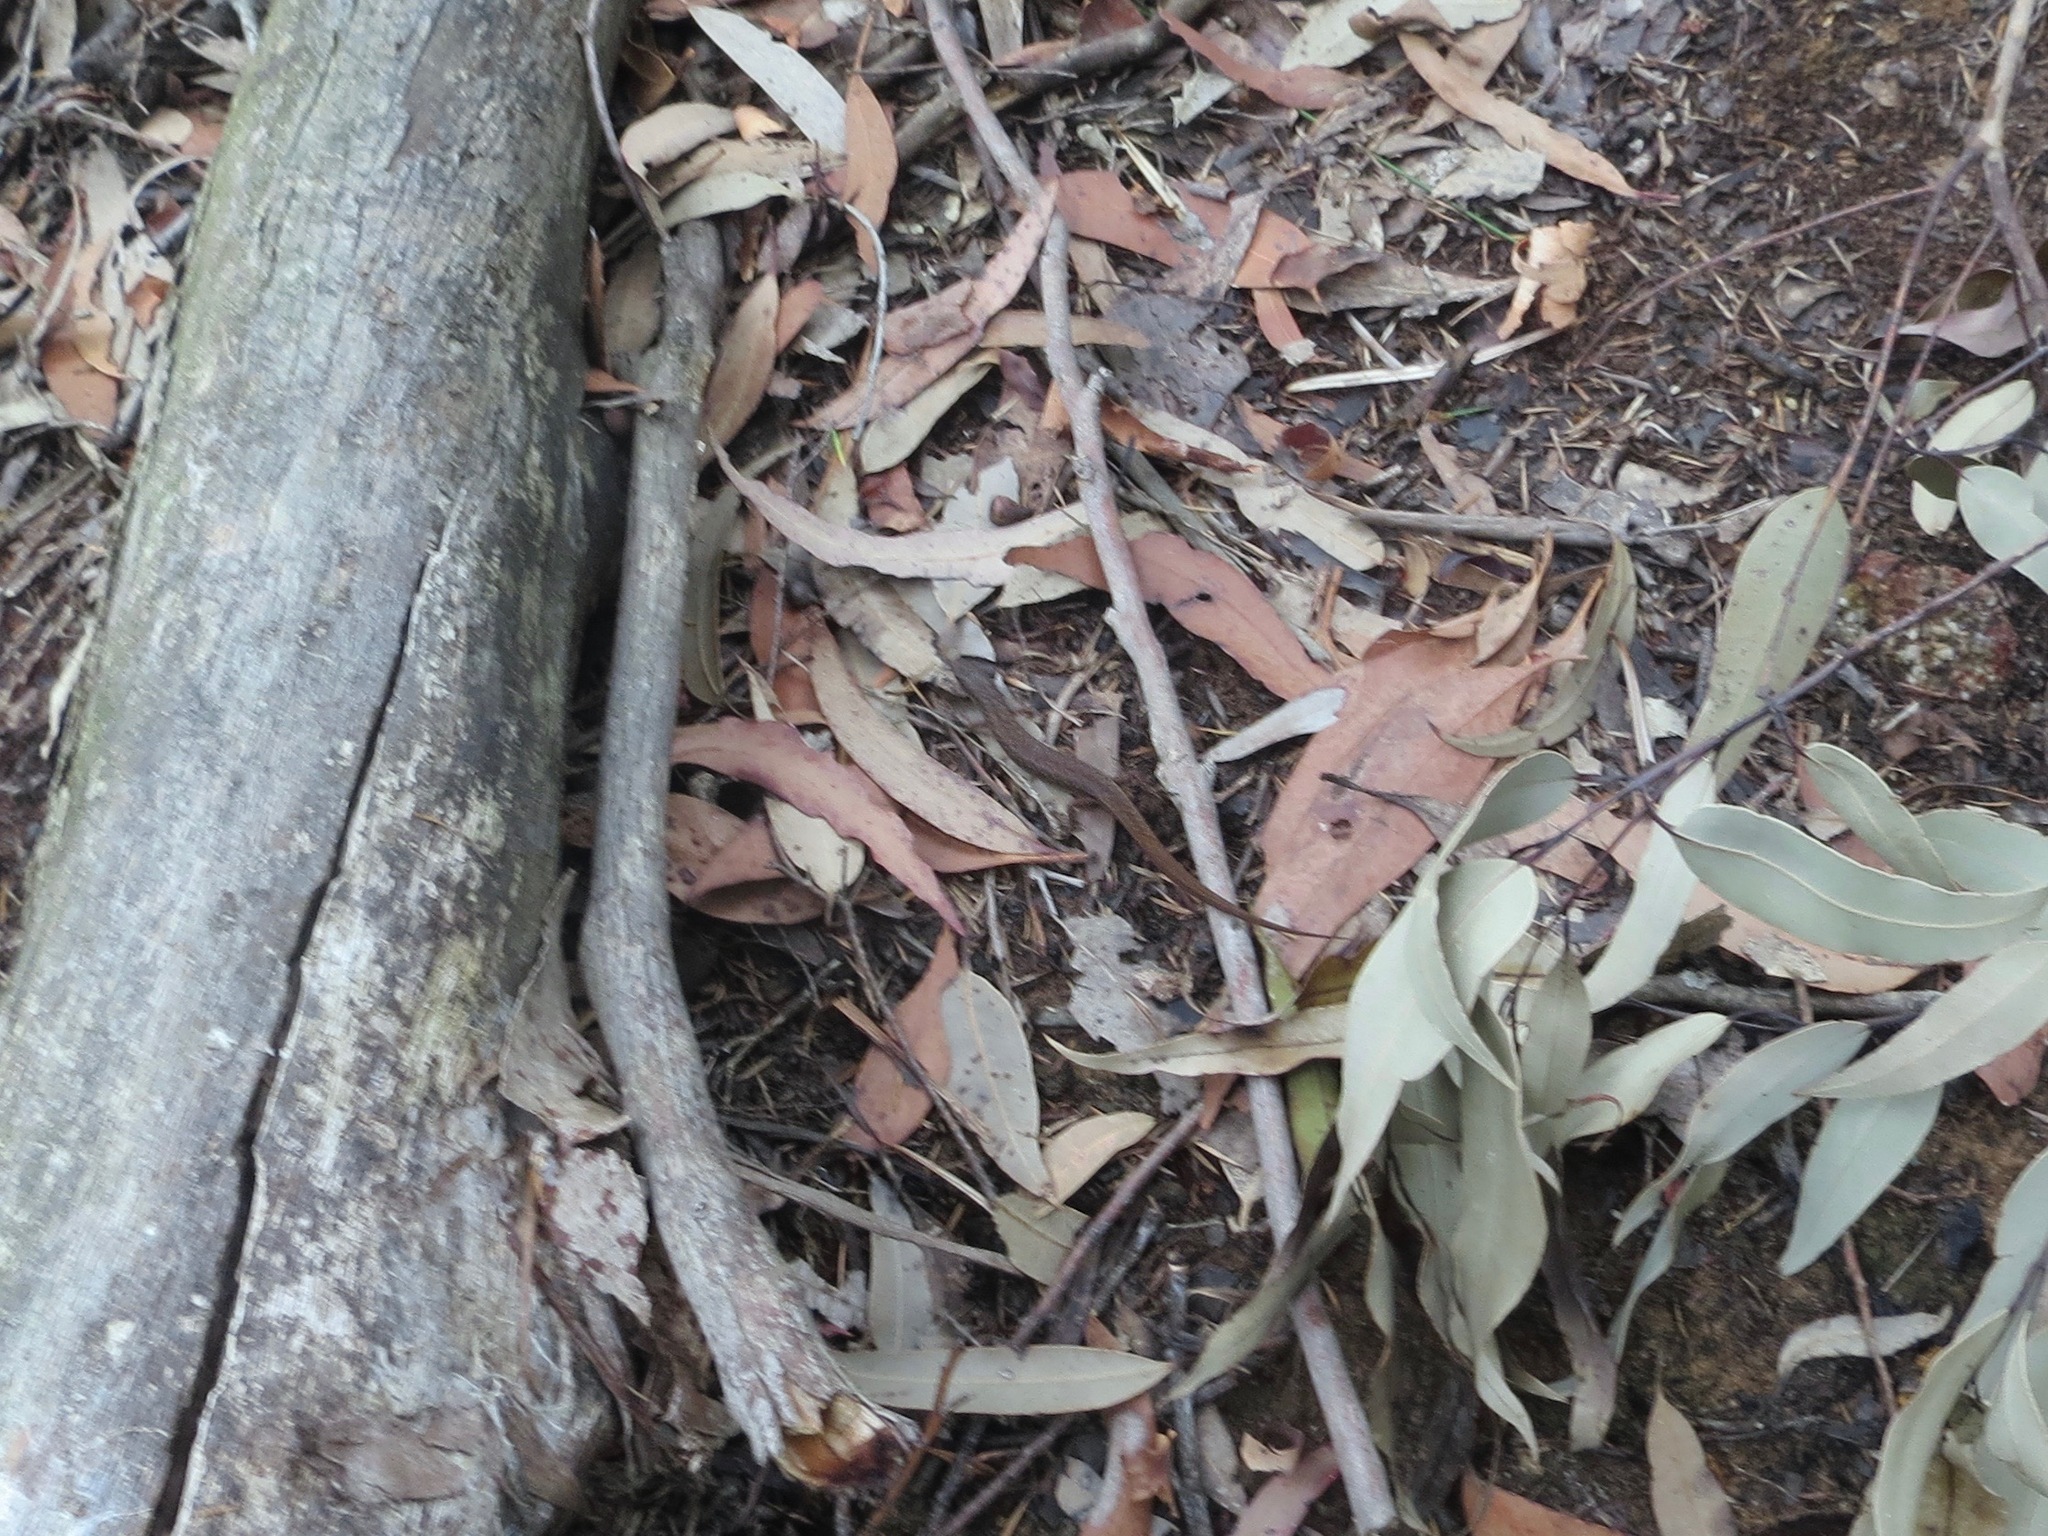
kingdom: Animalia
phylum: Chordata
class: Squamata
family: Scincidae
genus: Saproscincus
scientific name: Saproscincus mustelinus
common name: Southern weasel skink
